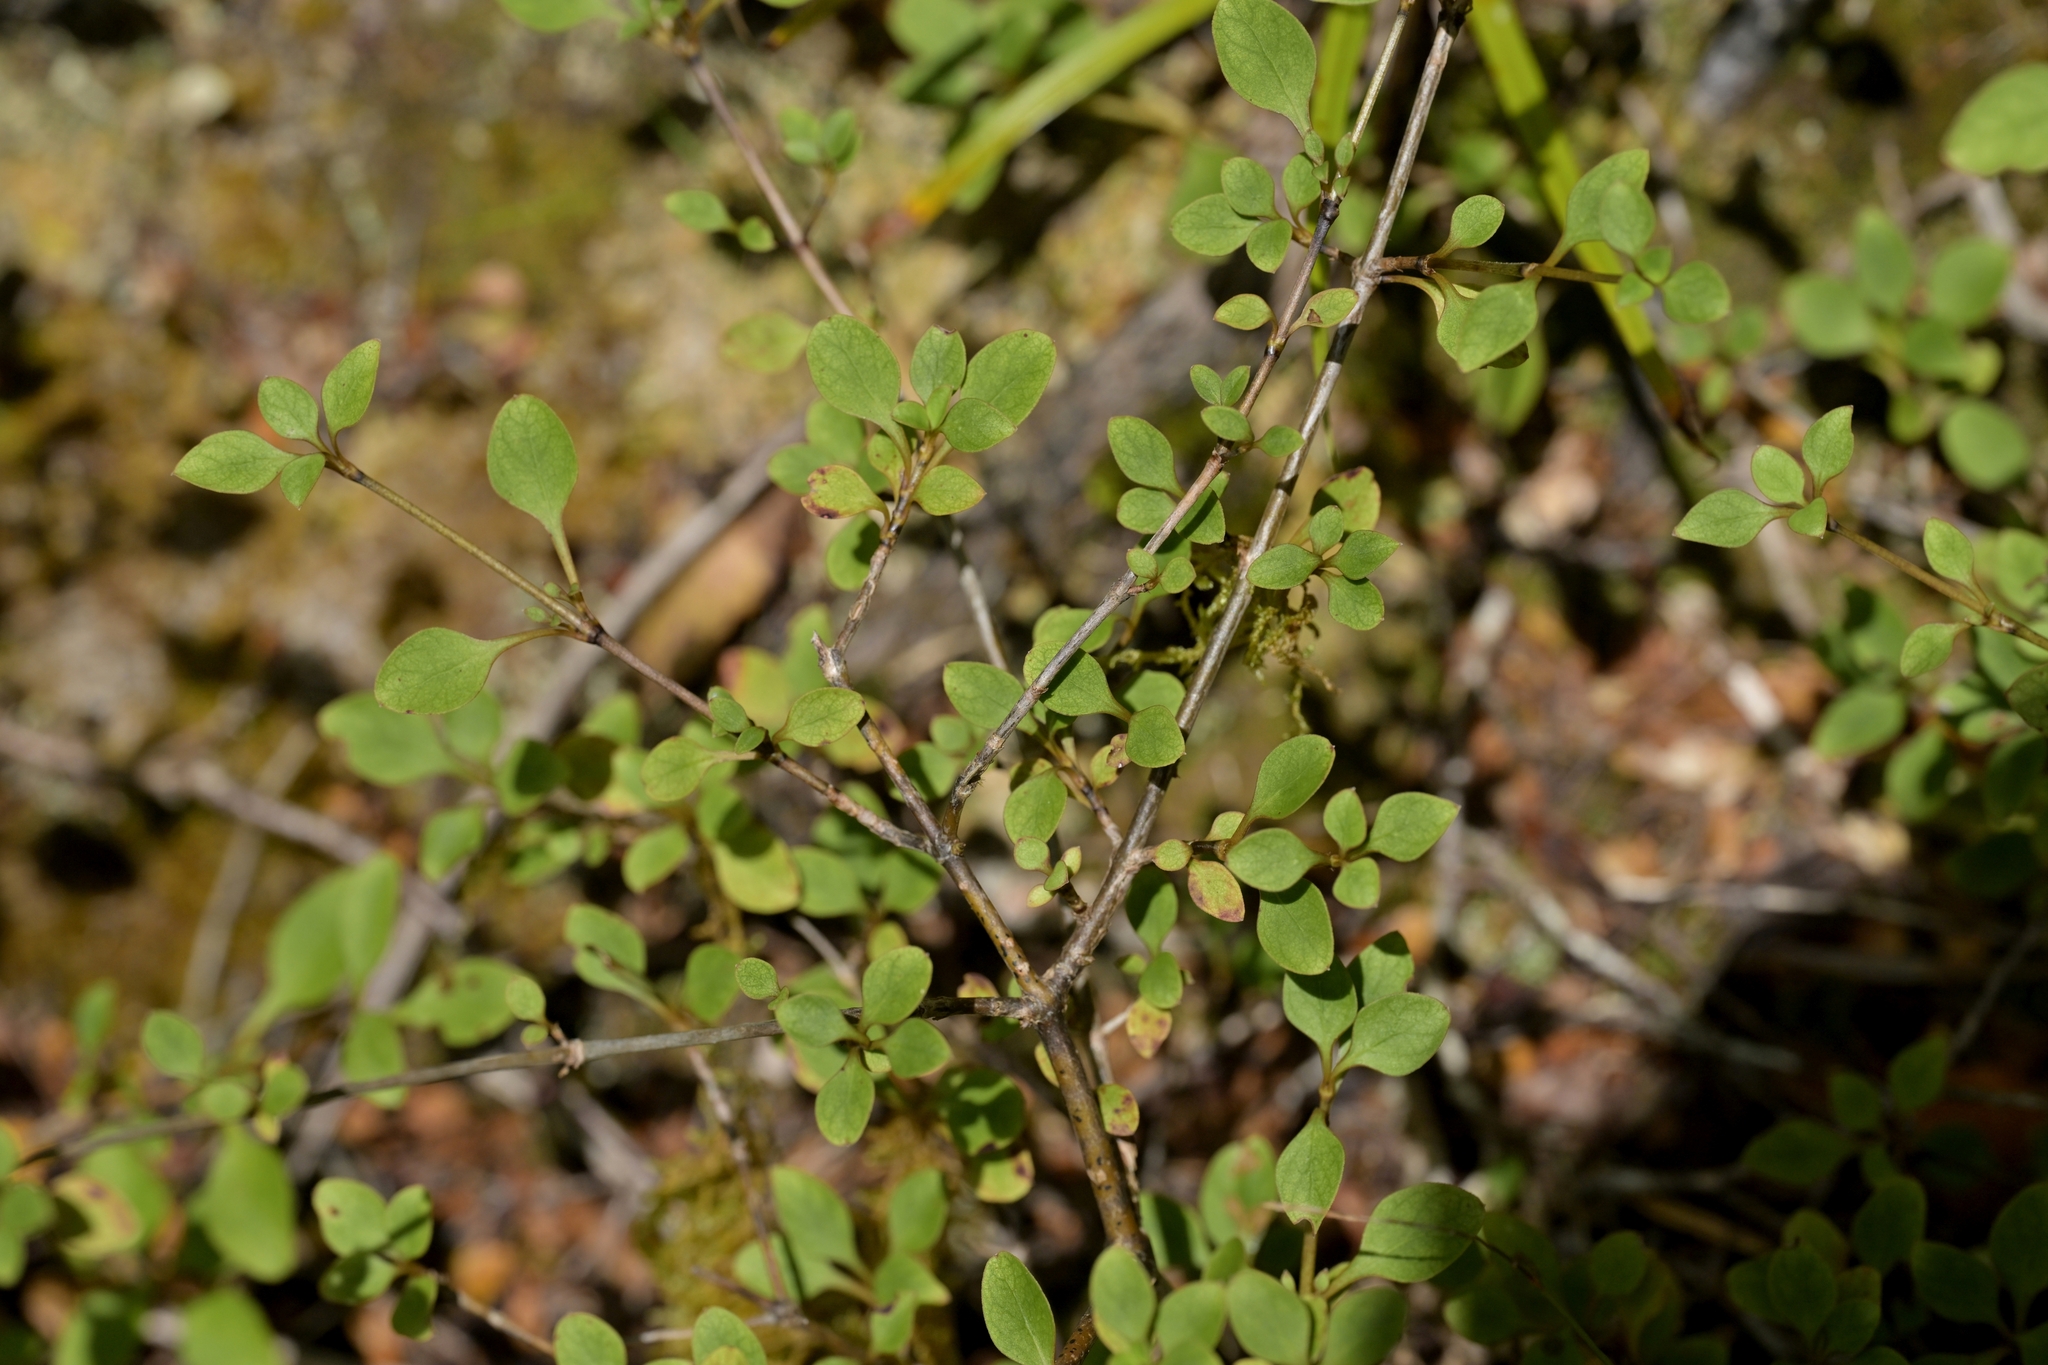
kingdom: Plantae
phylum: Tracheophyta
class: Magnoliopsida
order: Gentianales
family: Rubiaceae
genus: Coprosma
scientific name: Coprosma foetidissima
